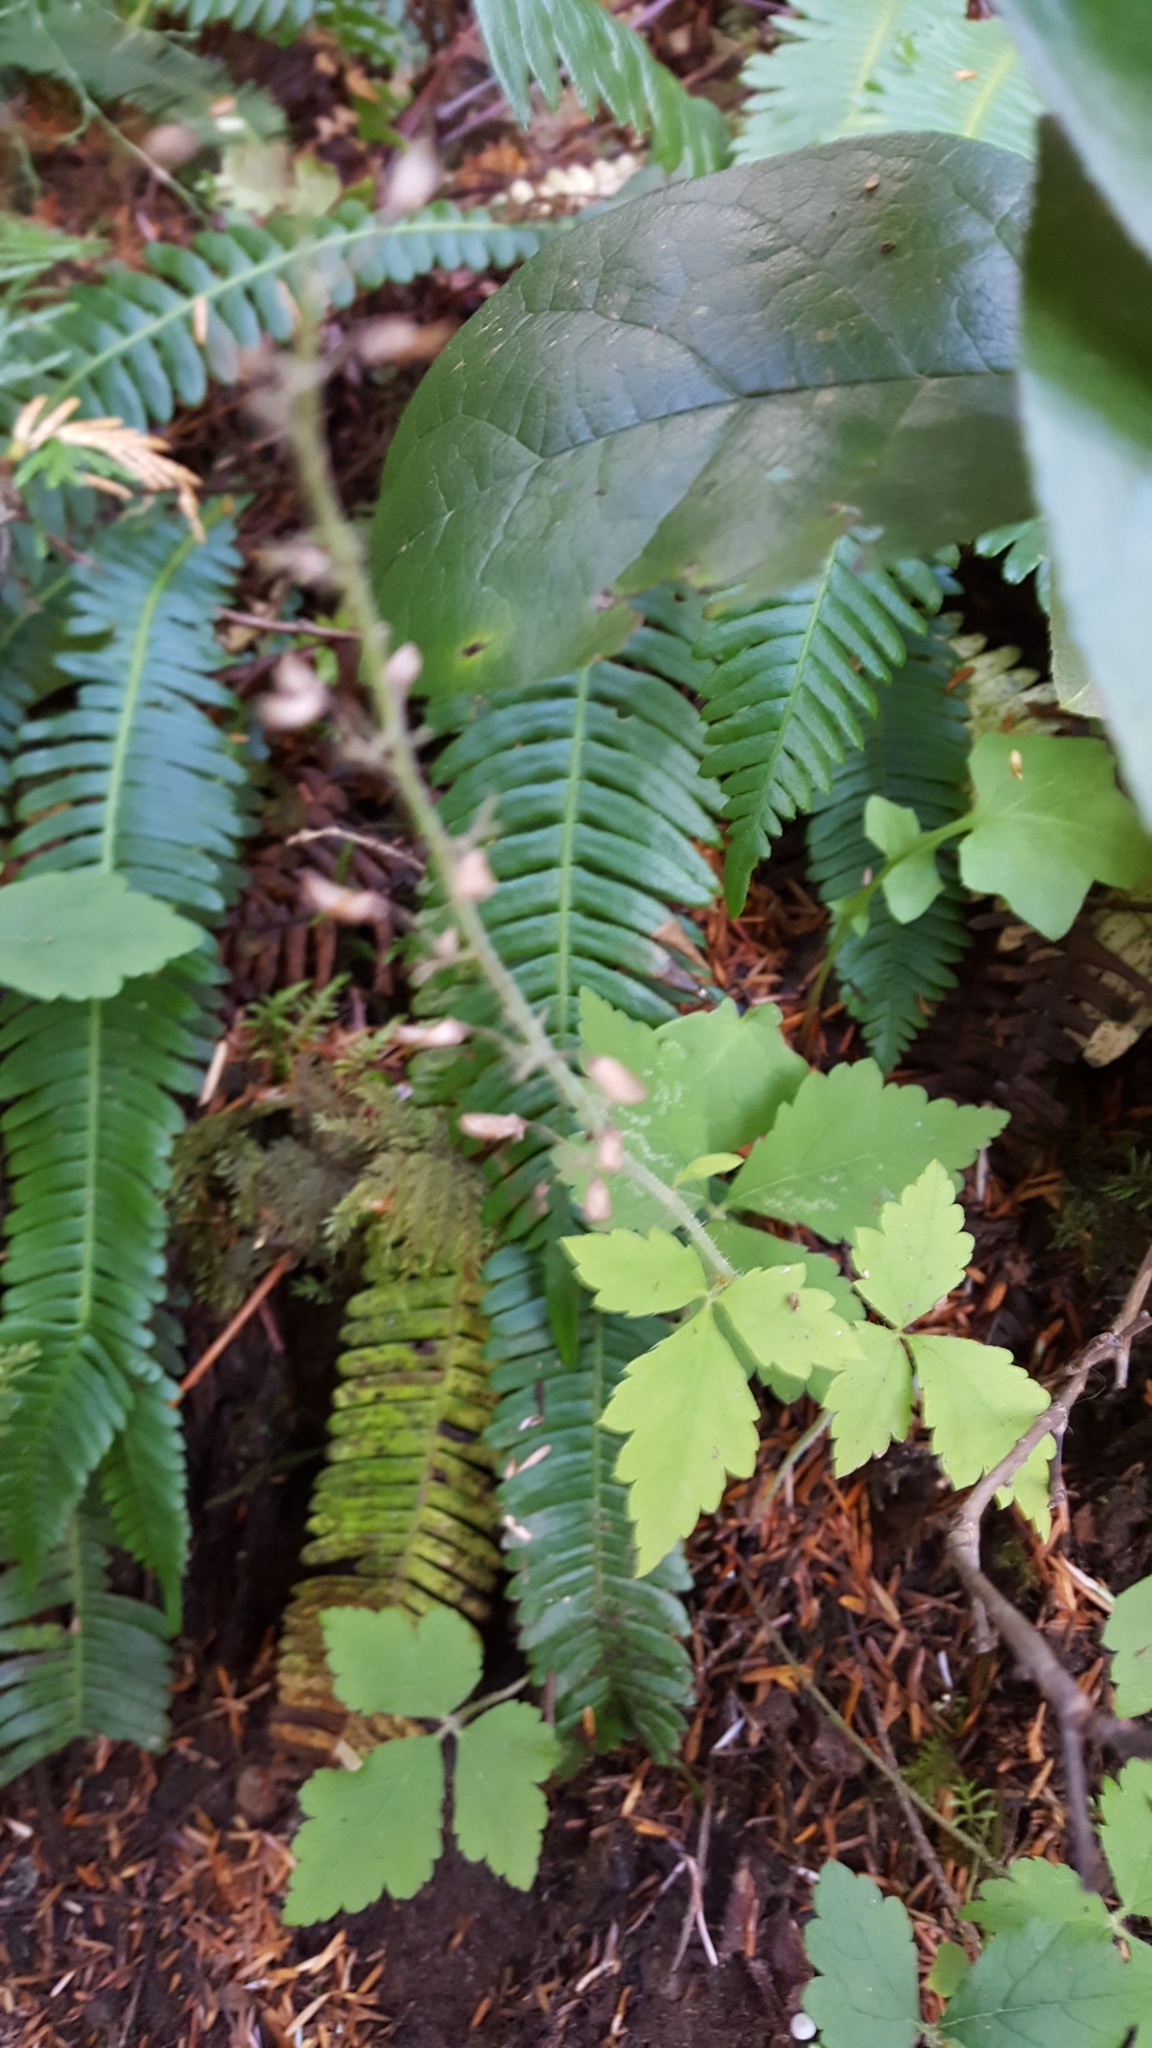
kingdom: Plantae
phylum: Tracheophyta
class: Magnoliopsida
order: Saxifragales
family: Saxifragaceae
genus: Tiarella
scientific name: Tiarella trifoliata
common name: Sugar-scoop
